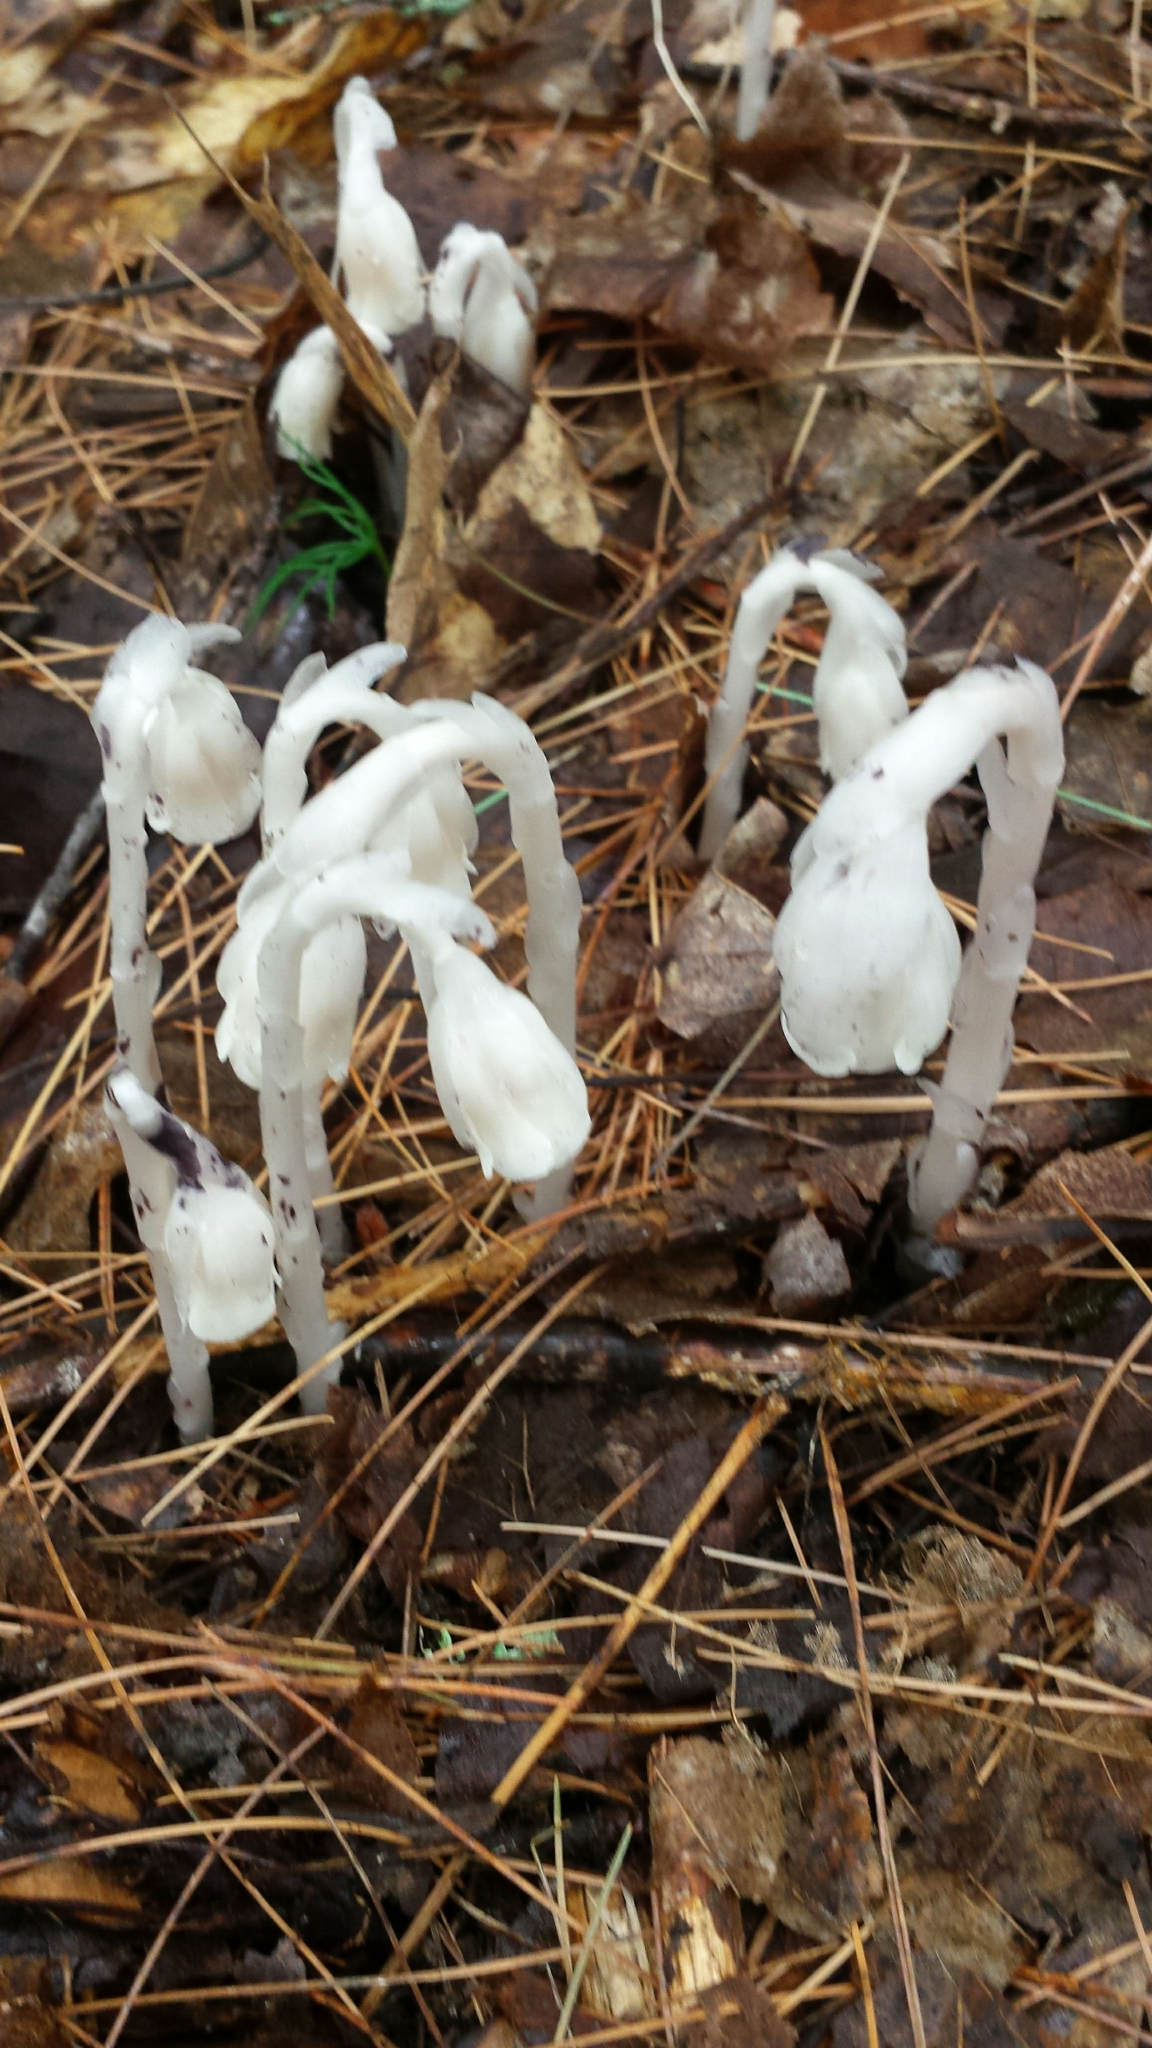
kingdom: Plantae
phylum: Tracheophyta
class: Magnoliopsida
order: Ericales
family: Ericaceae
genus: Monotropa
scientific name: Monotropa uniflora
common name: Convulsion root
